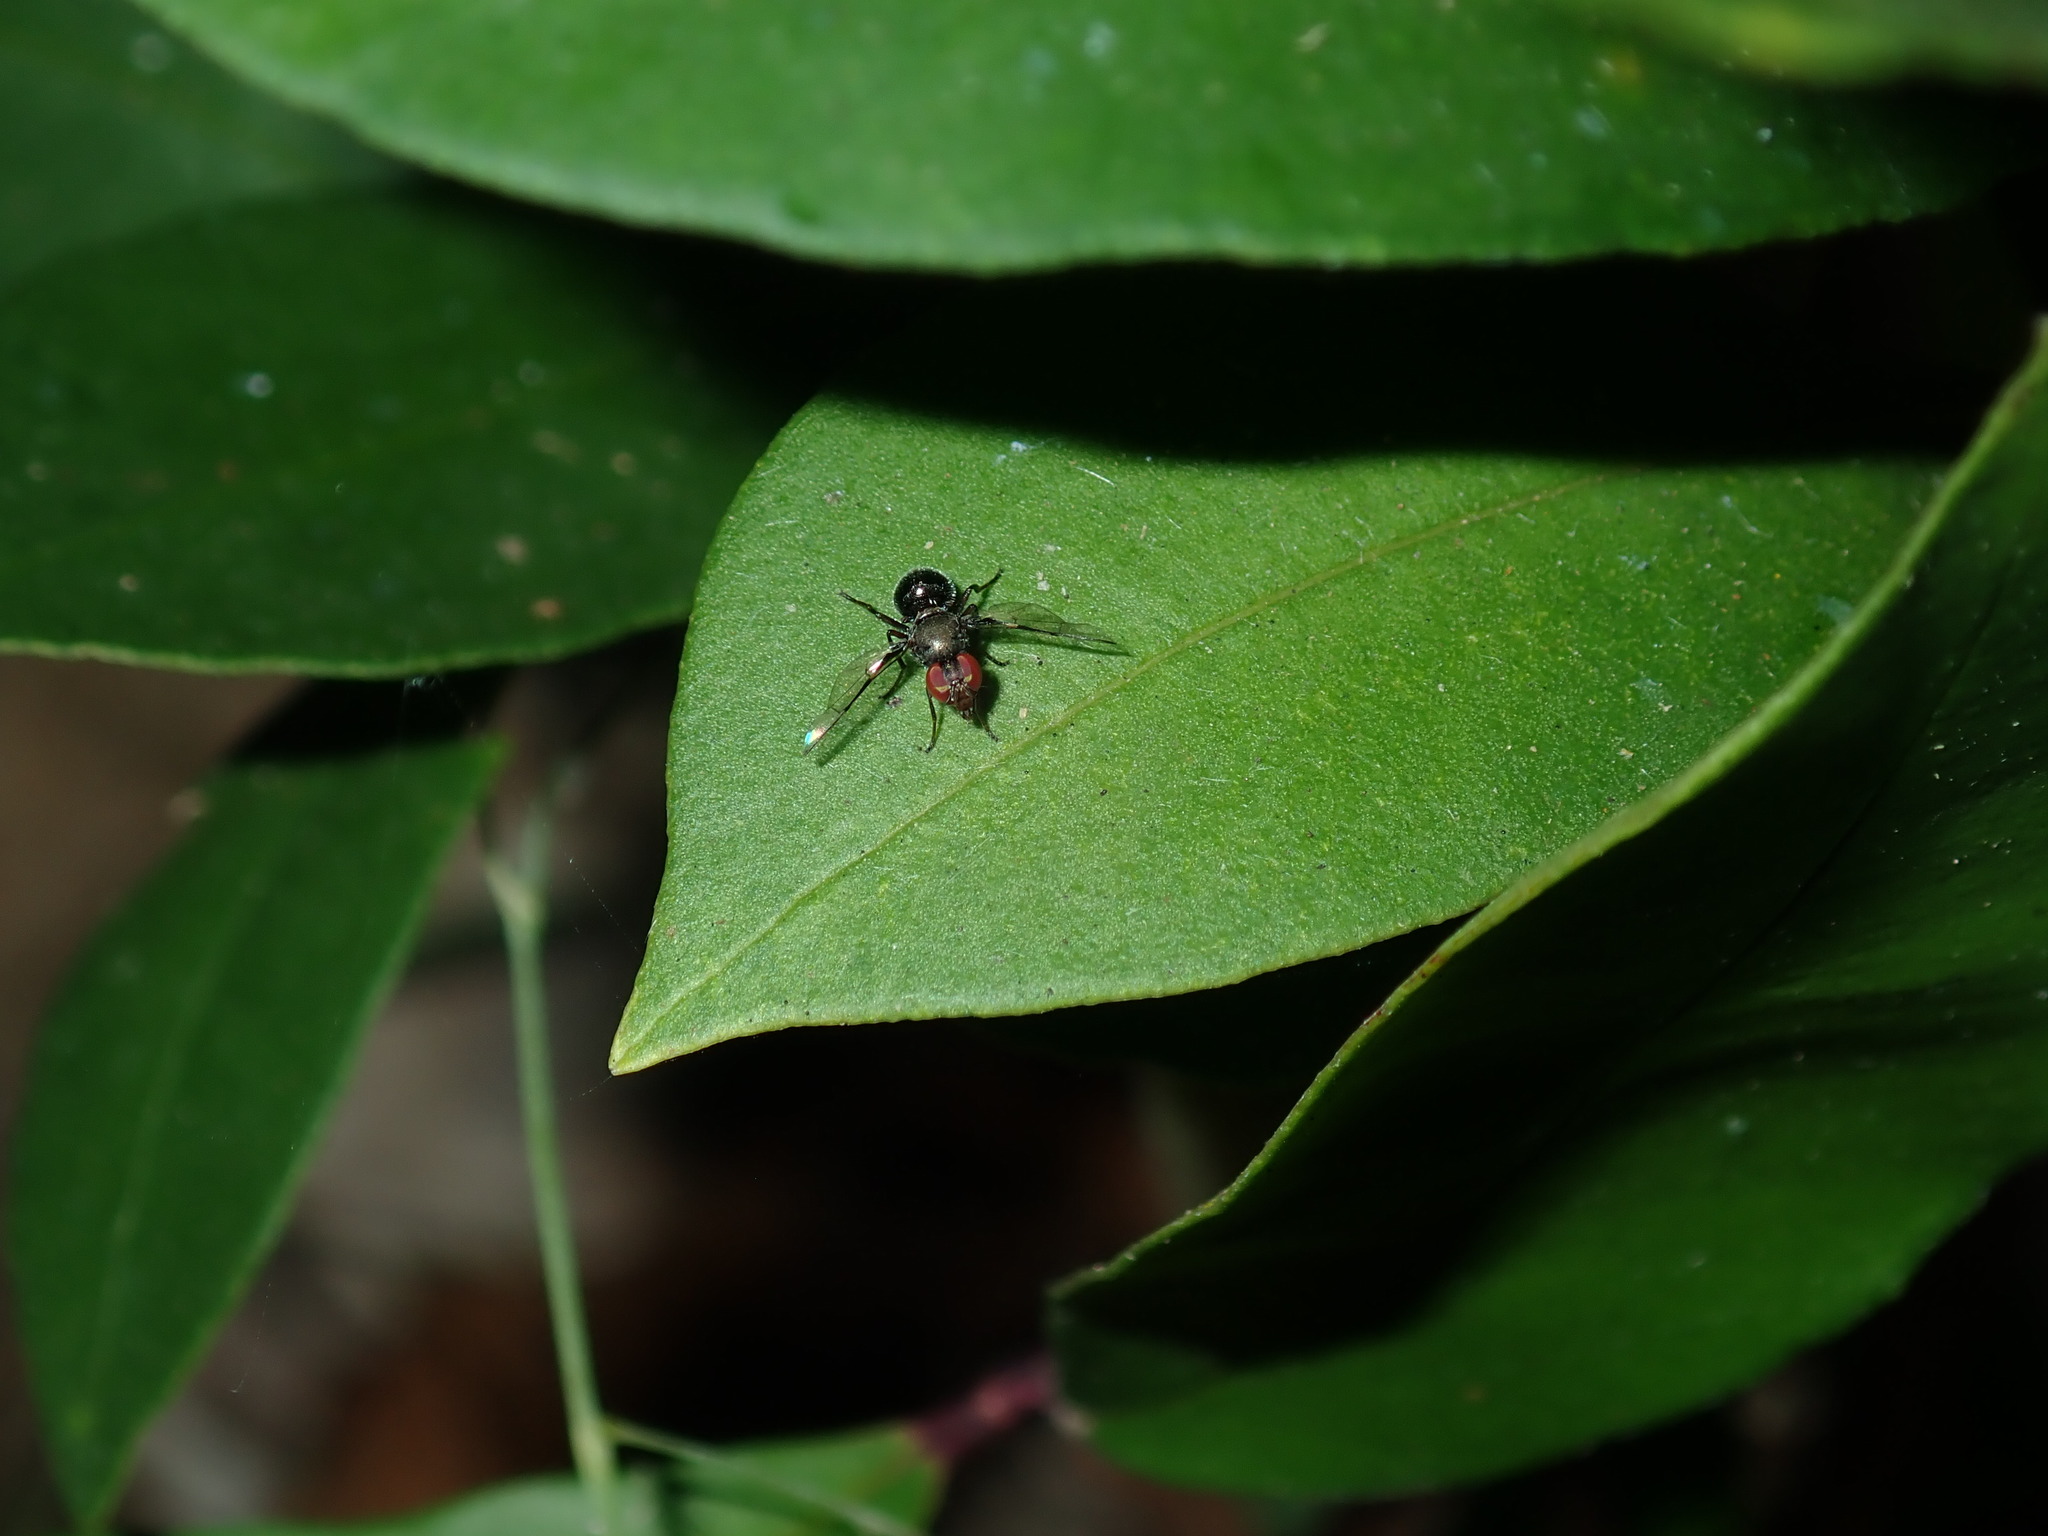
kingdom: Animalia
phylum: Arthropoda
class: Insecta
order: Diptera
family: Platystomatidae
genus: Pogonortalis
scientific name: Pogonortalis doclea
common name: Boatman fly
